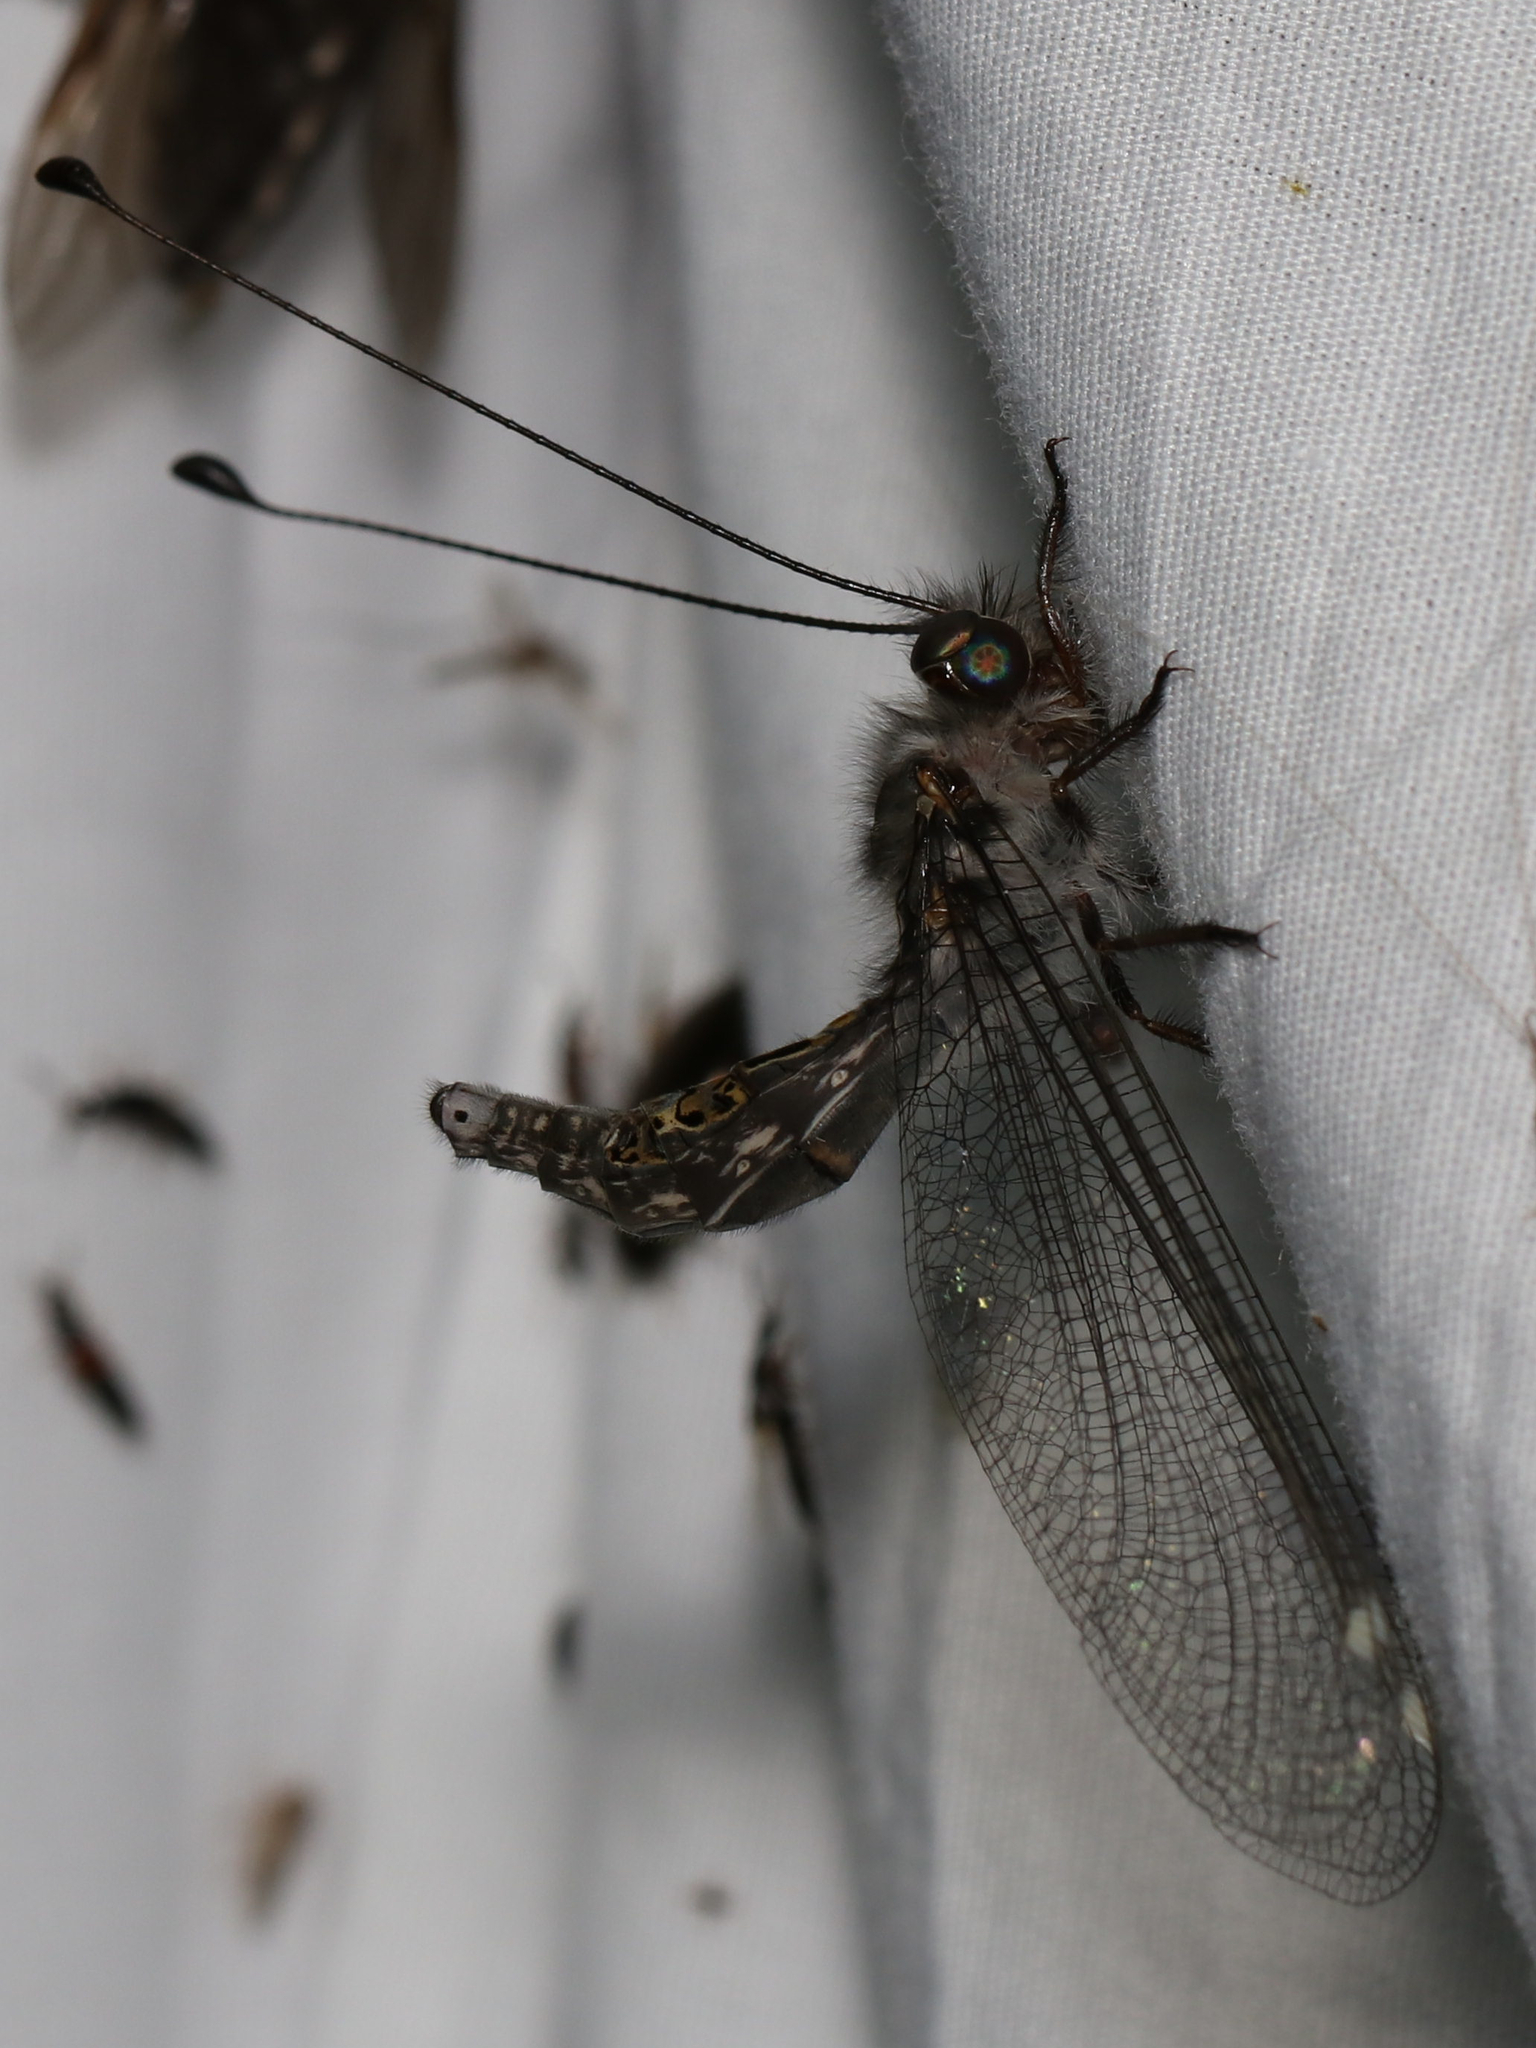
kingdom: Animalia
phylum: Arthropoda
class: Insecta
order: Neuroptera
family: Ascalaphidae
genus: Ululodes
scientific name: Ululodes quadripunctatus
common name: Four-spotted owlfly
